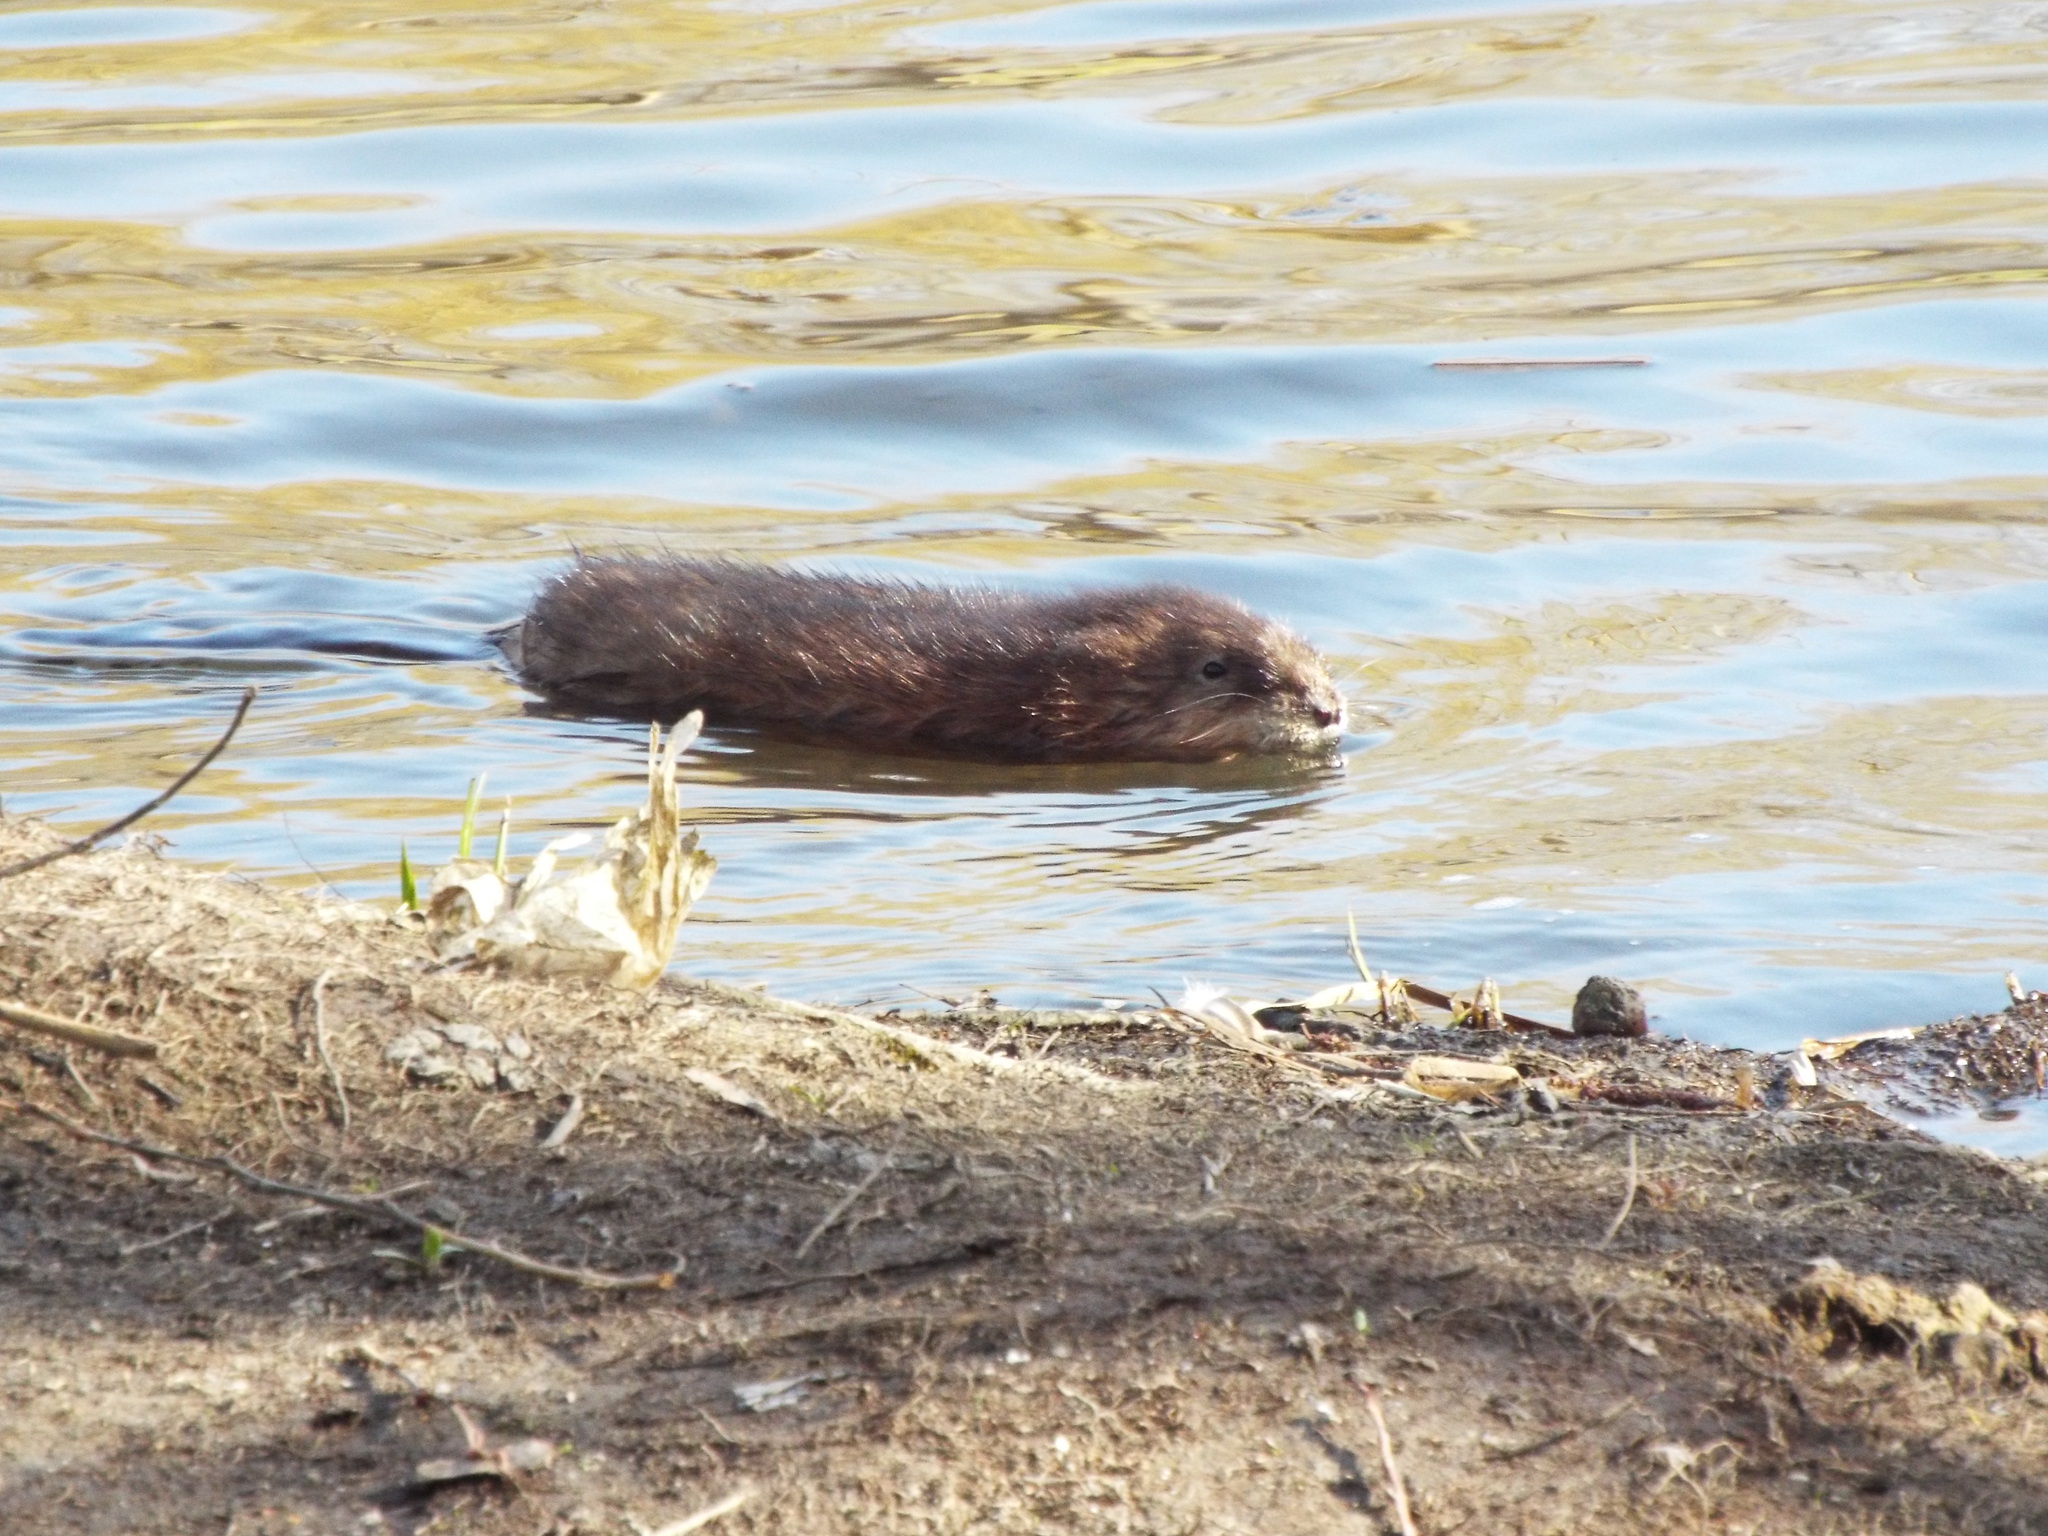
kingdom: Animalia
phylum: Chordata
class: Mammalia
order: Rodentia
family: Cricetidae
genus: Ondatra
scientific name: Ondatra zibethicus
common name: Muskrat
